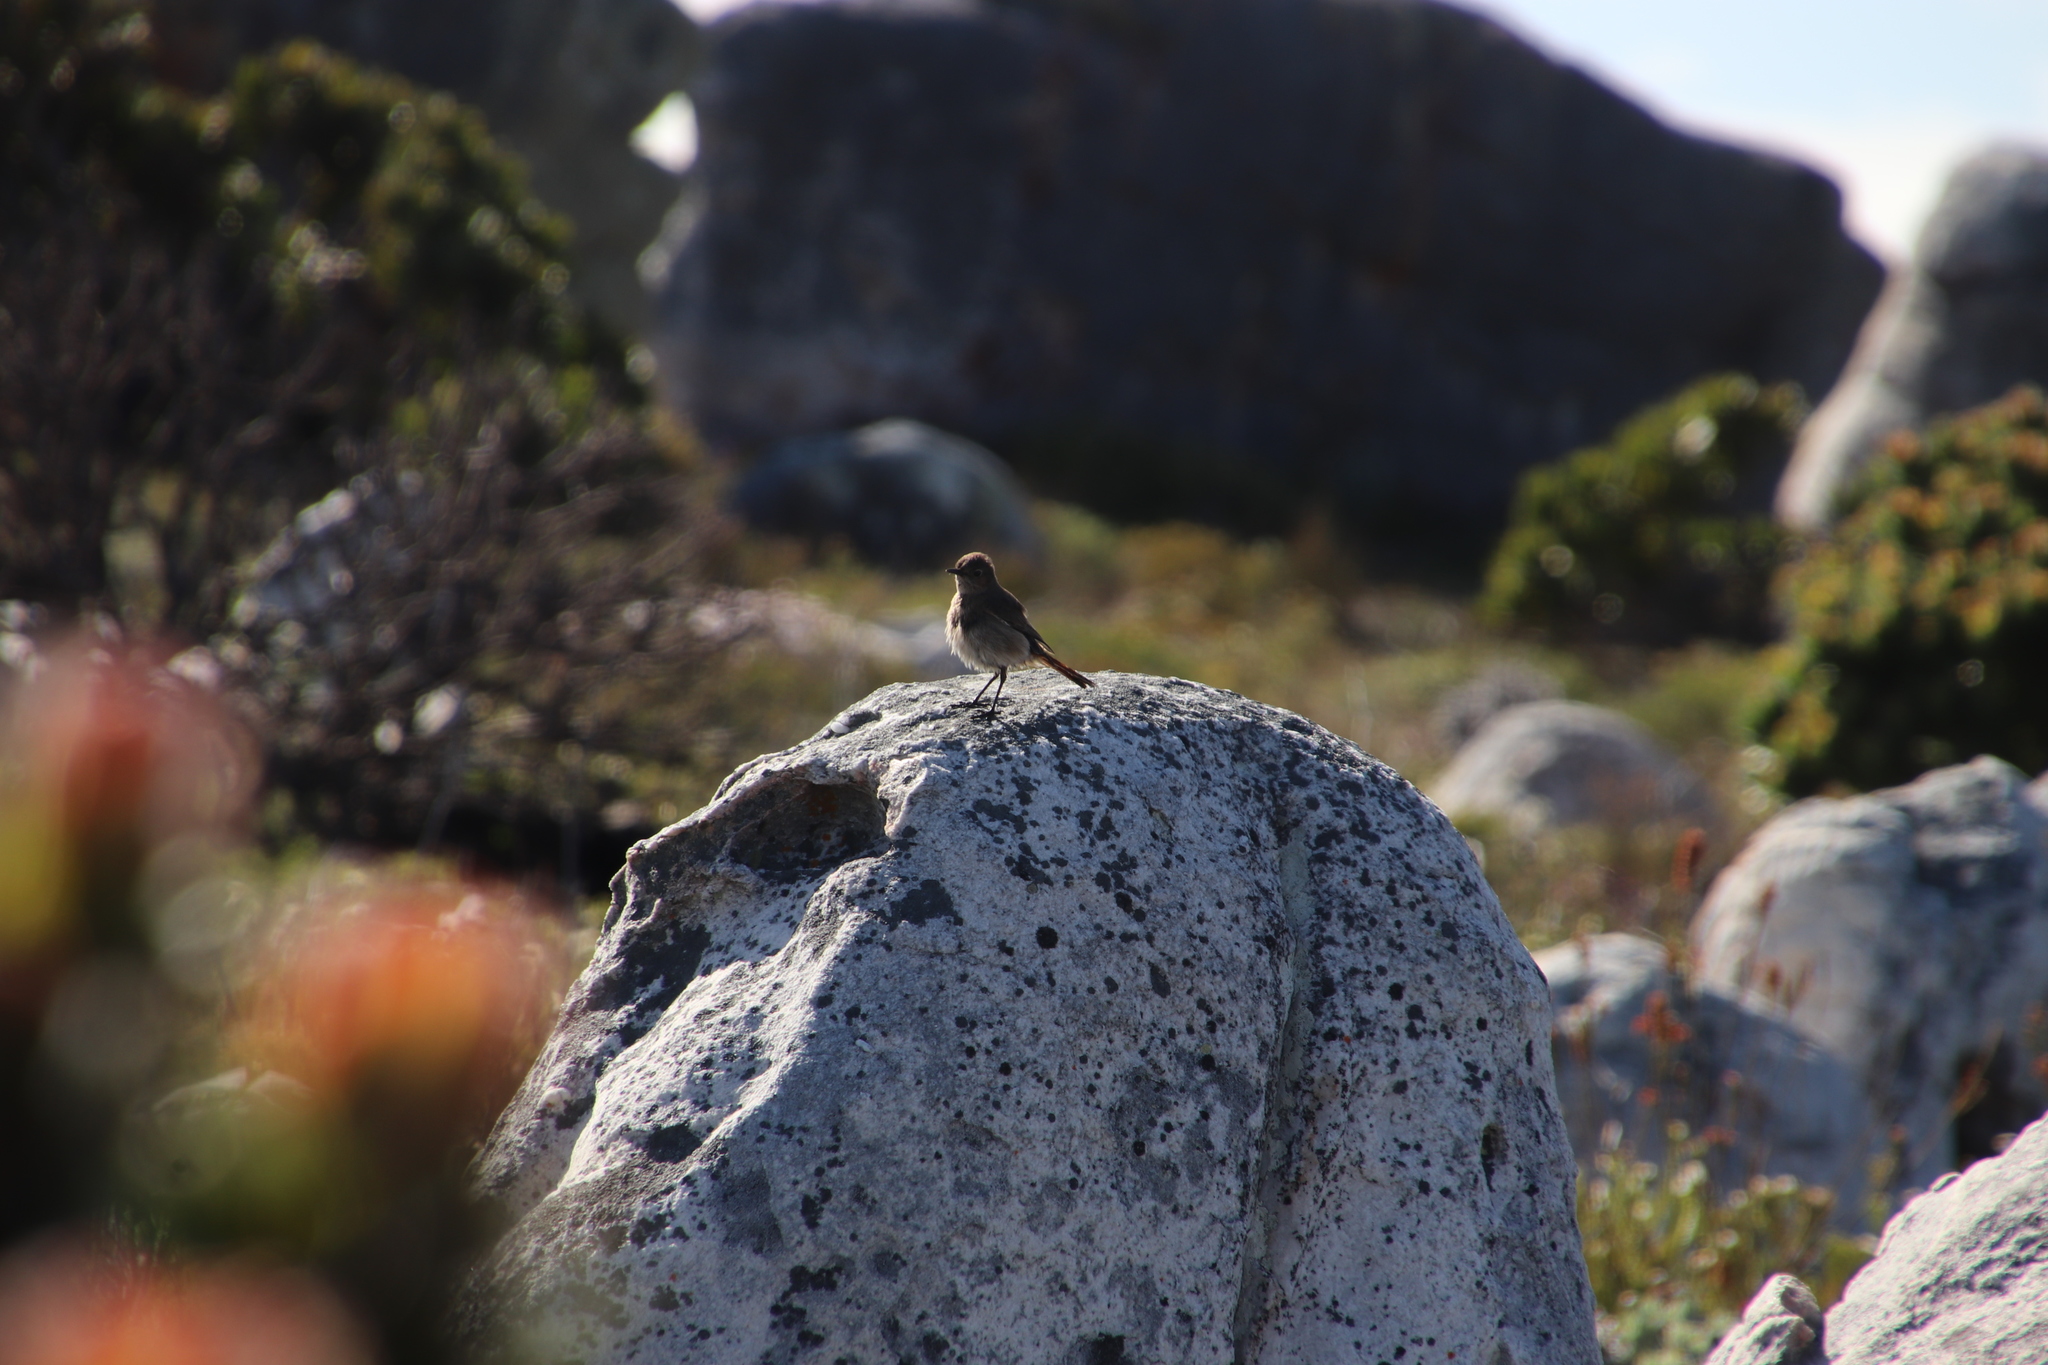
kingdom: Animalia
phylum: Chordata
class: Aves
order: Passeriformes
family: Muscicapidae
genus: Oenanthe
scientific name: Oenanthe familiaris
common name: Familiar chat
